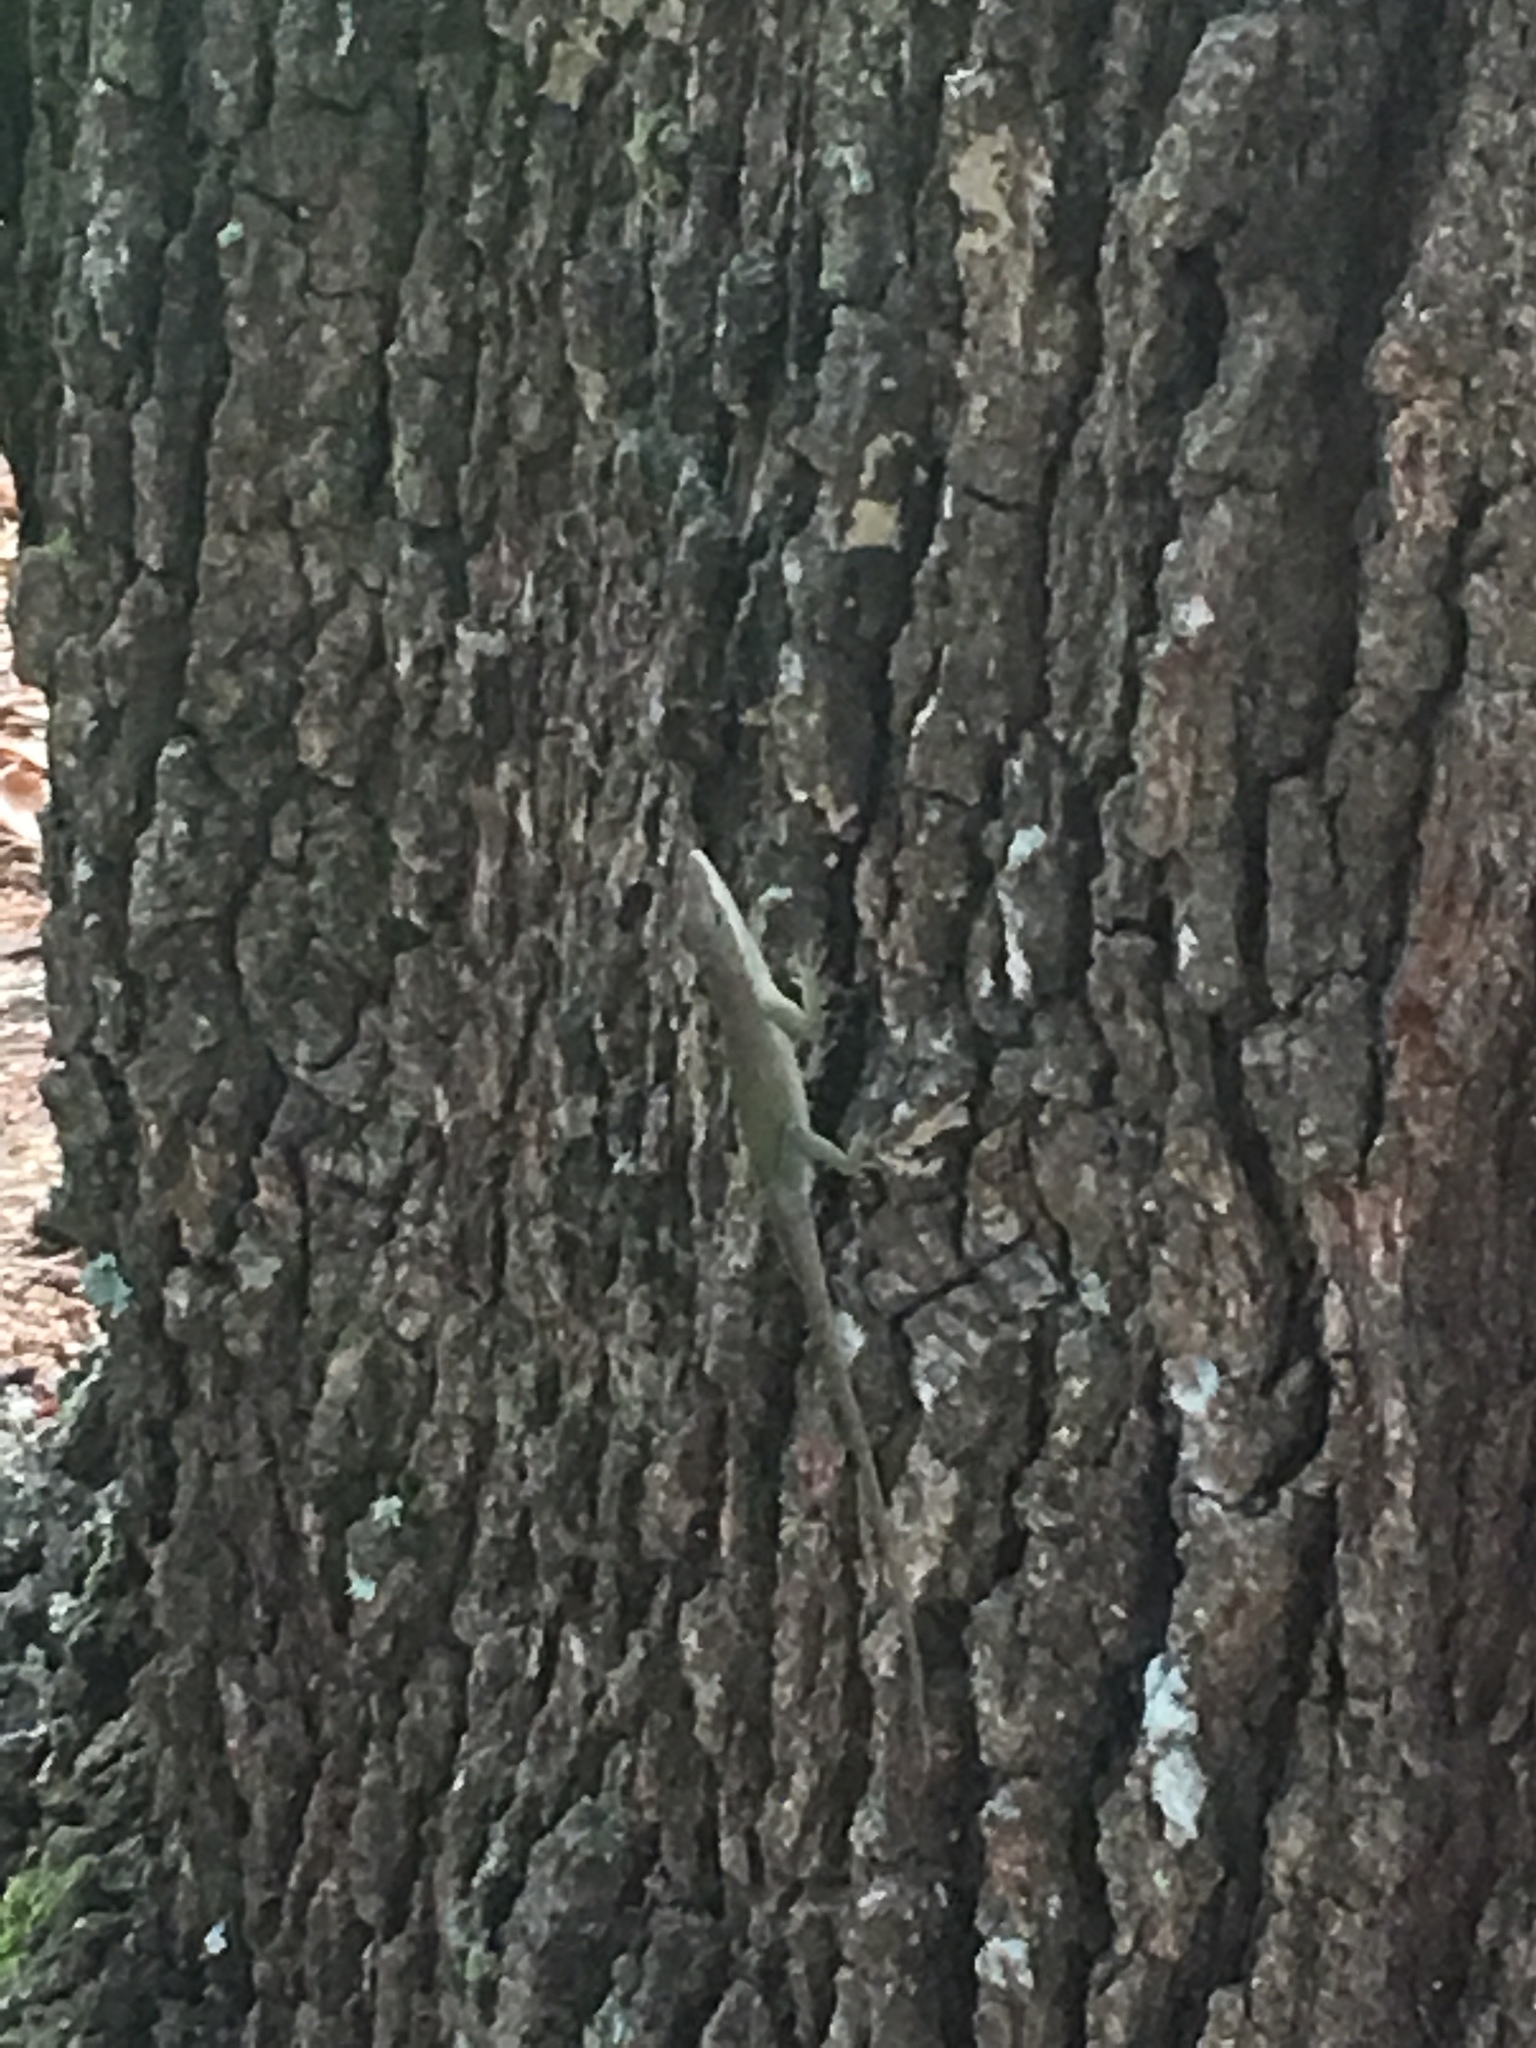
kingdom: Animalia
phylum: Chordata
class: Squamata
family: Dactyloidae
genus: Anolis
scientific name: Anolis carolinensis
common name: Green anole
